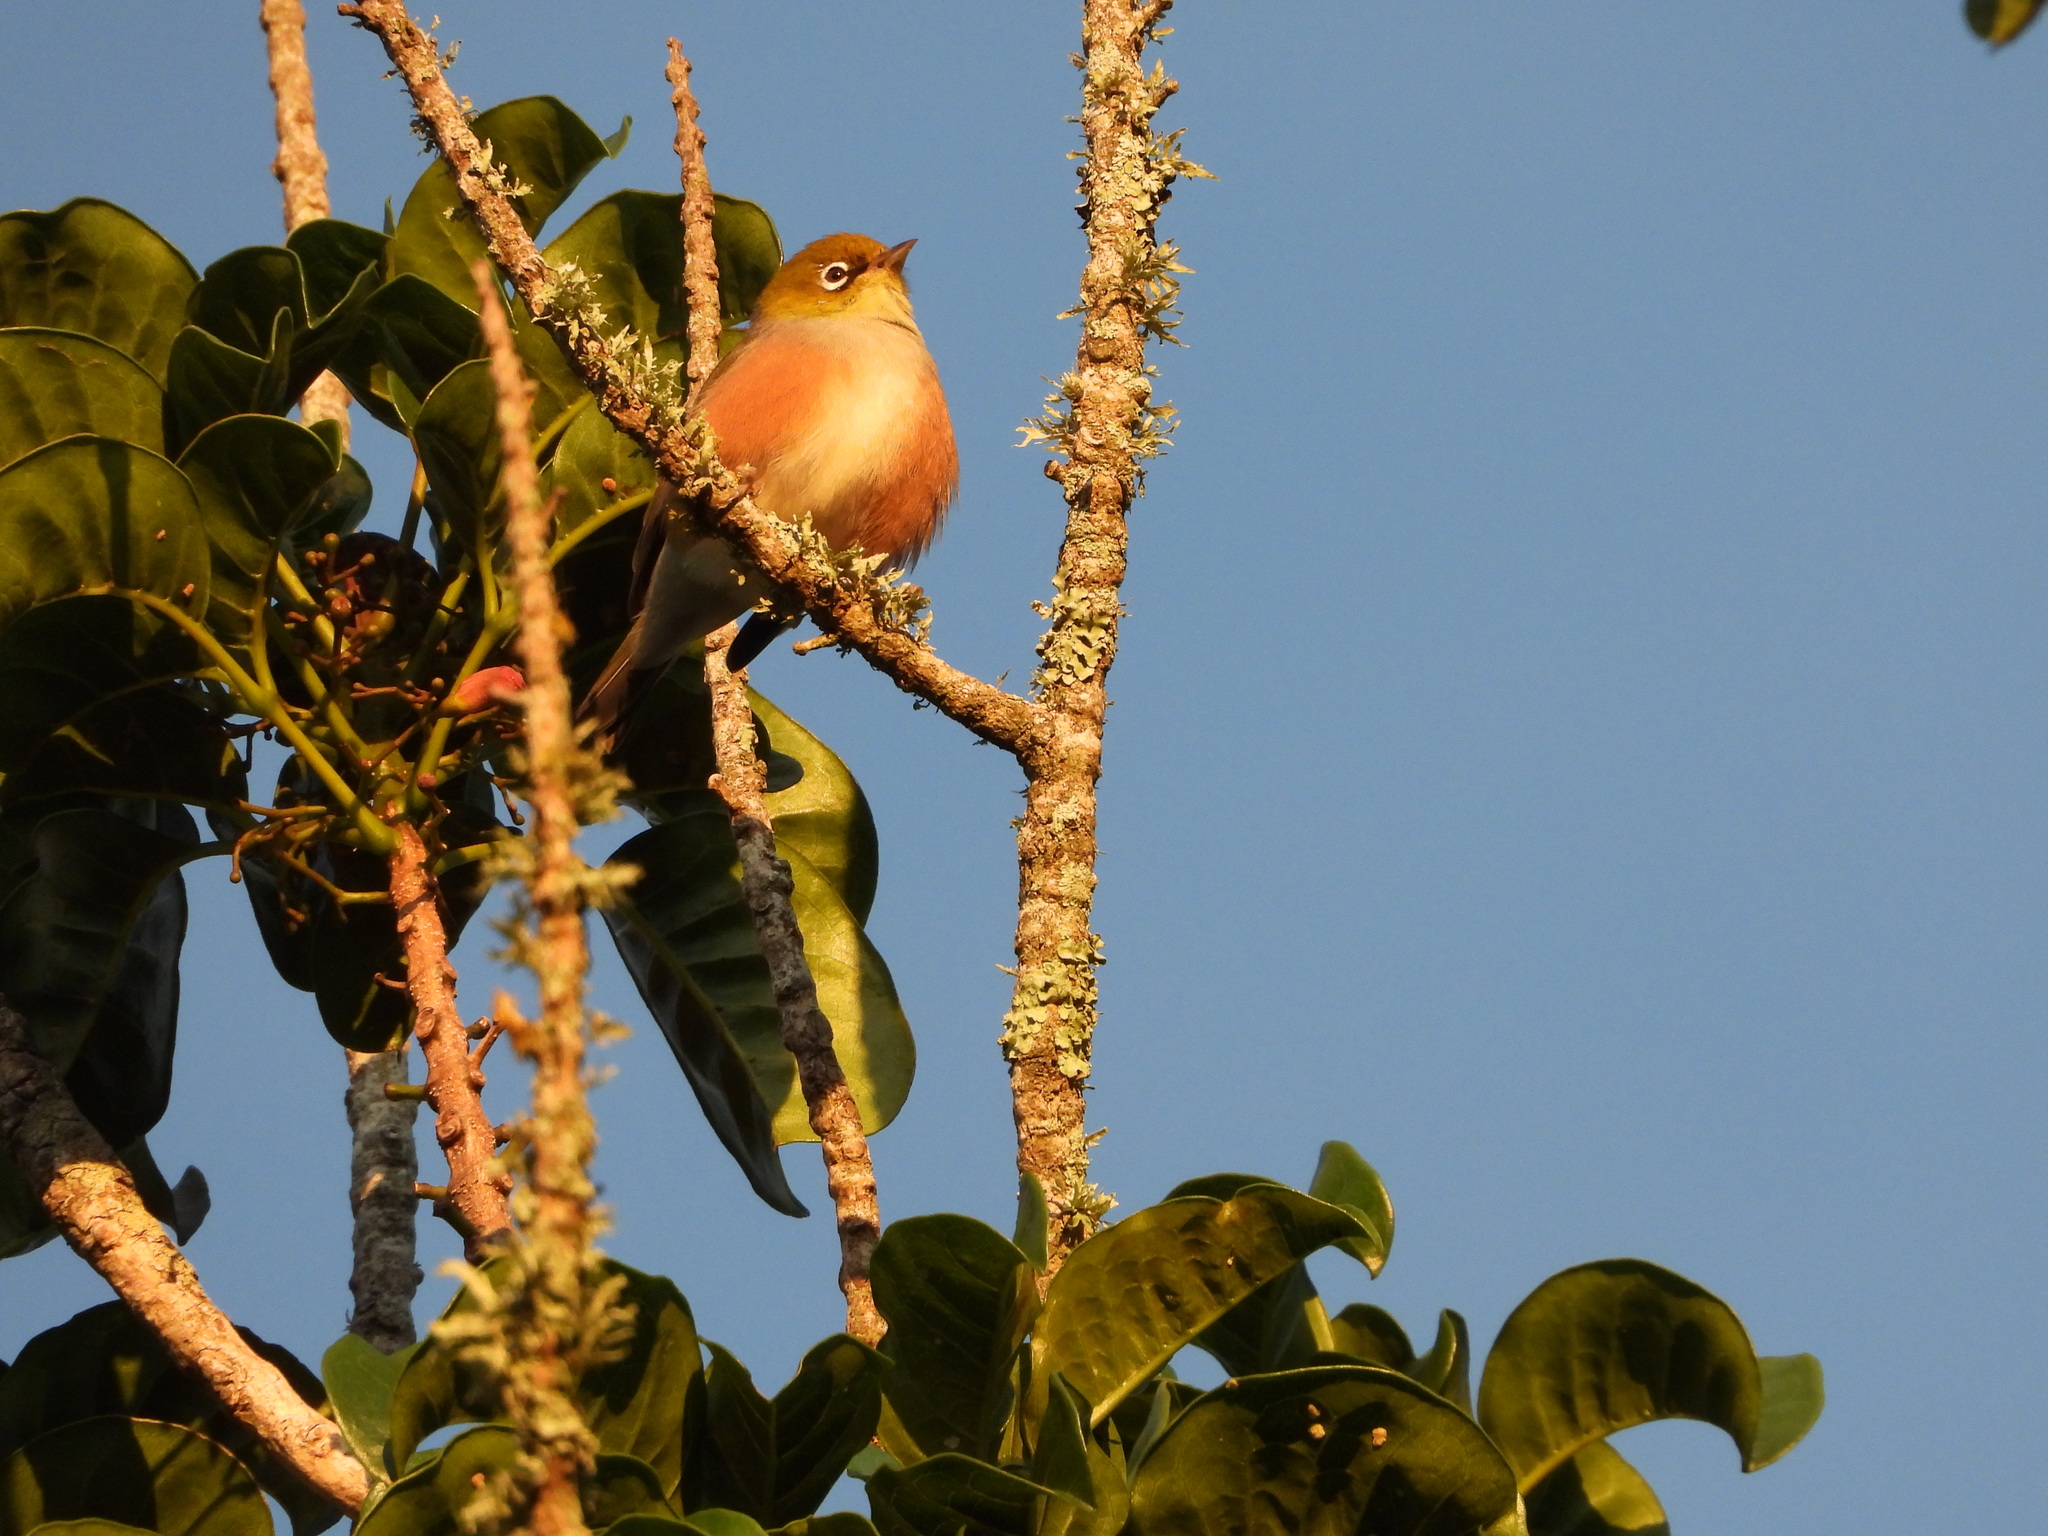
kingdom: Animalia
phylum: Chordata
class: Aves
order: Passeriformes
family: Zosteropidae
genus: Zosterops
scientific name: Zosterops lateralis
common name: Silvereye
